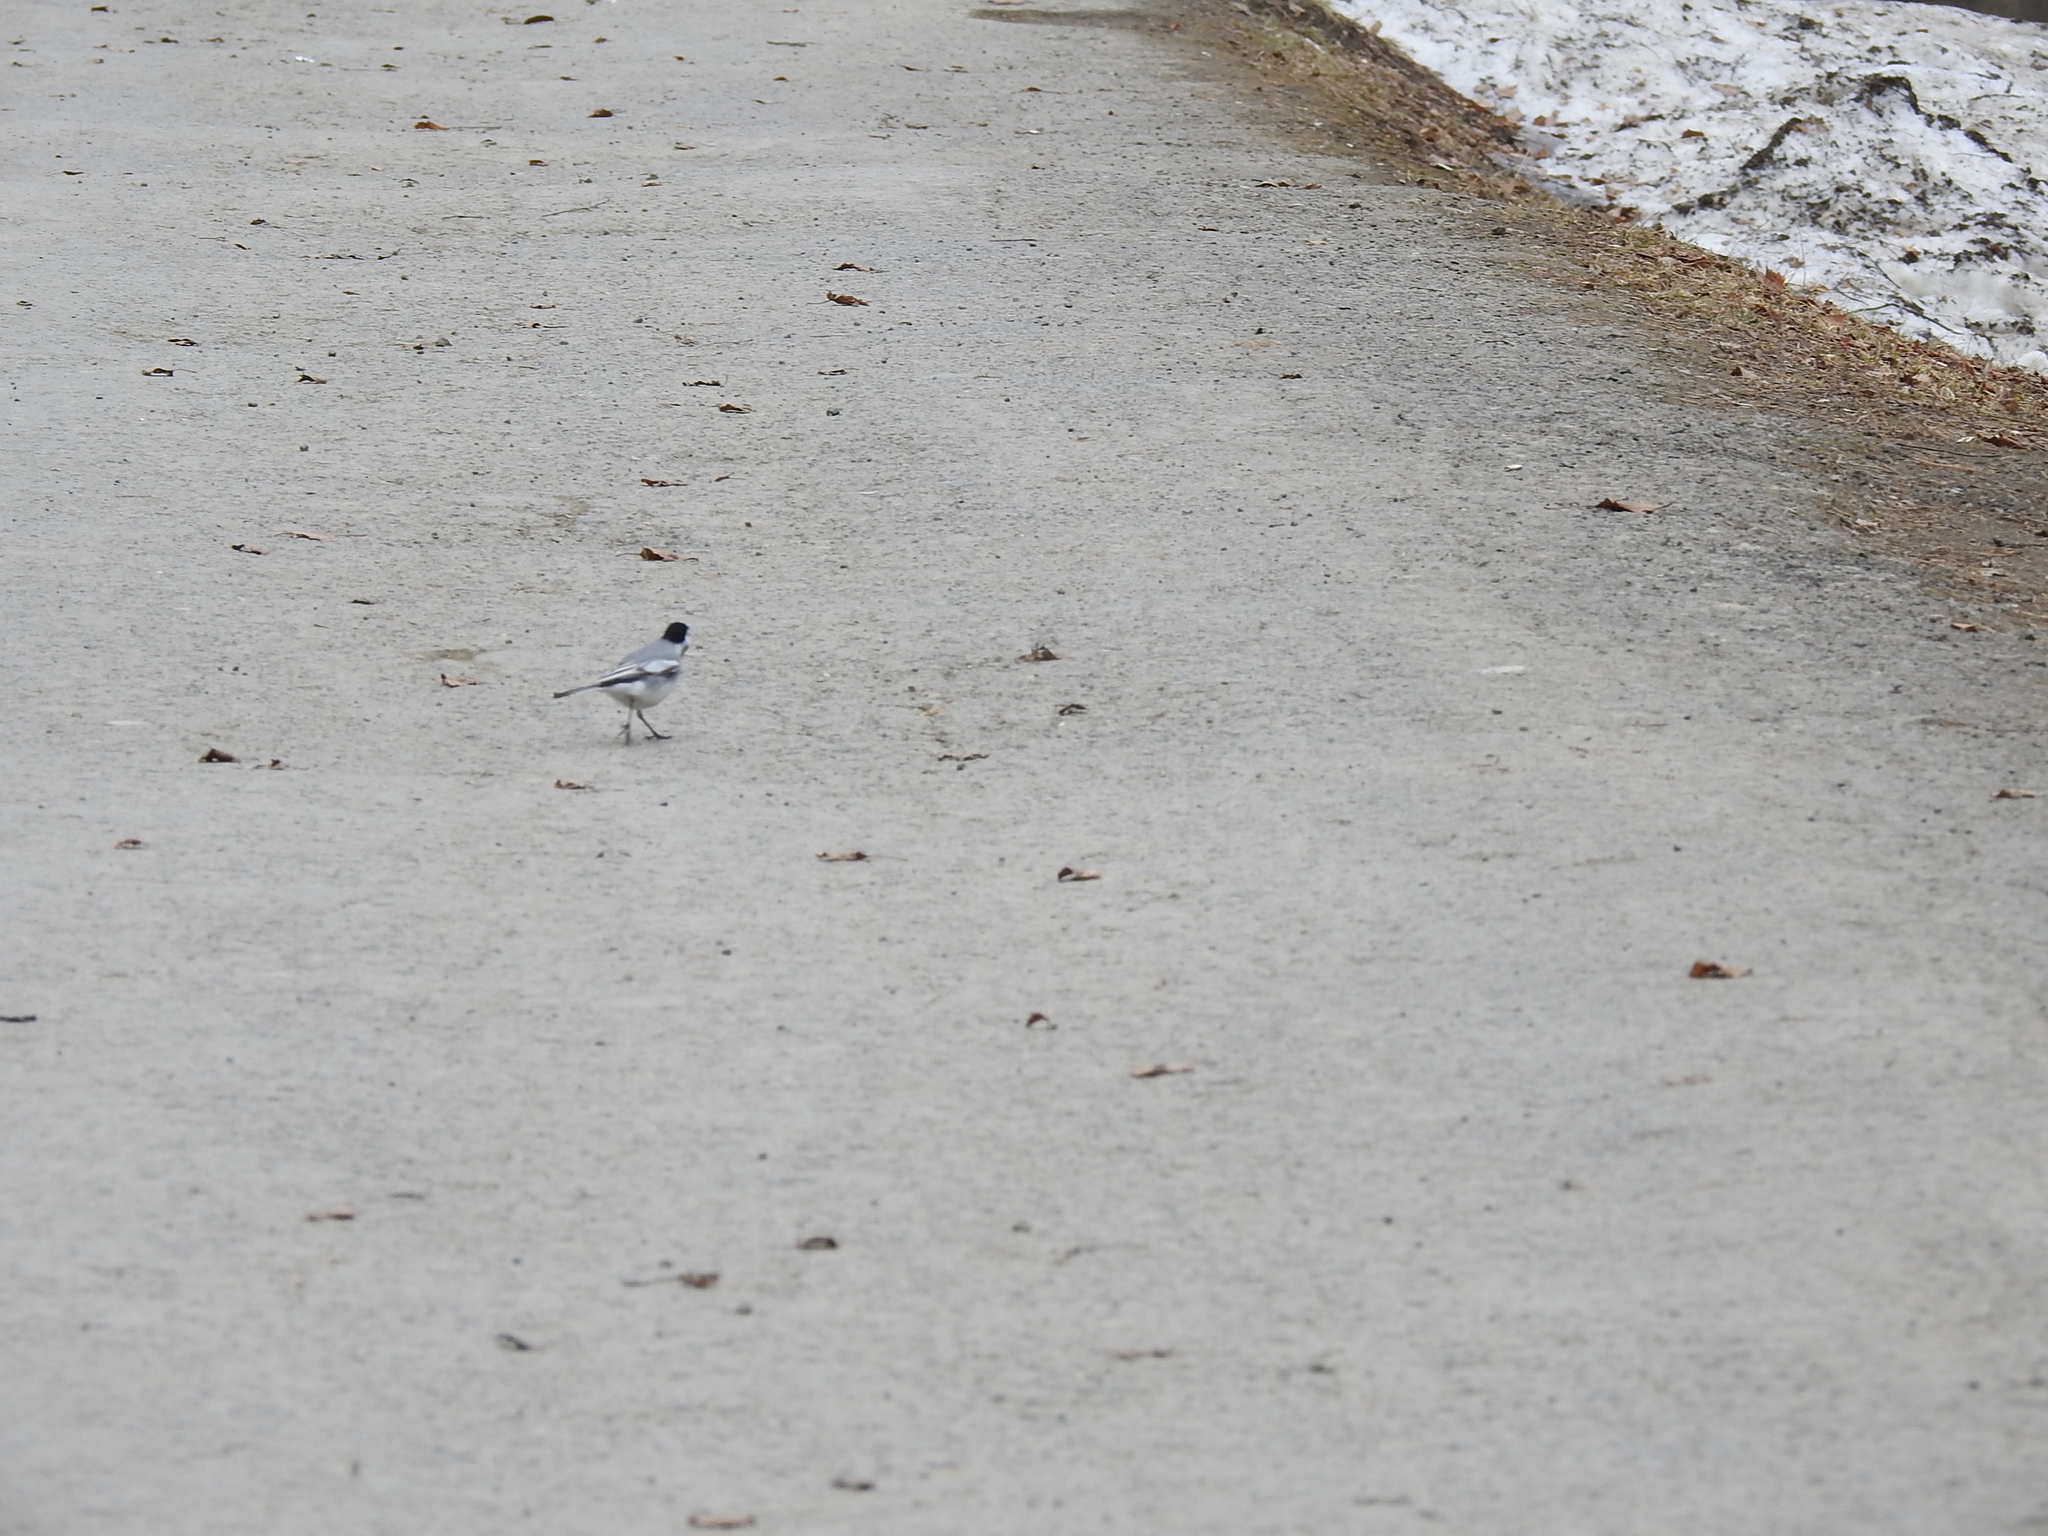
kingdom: Animalia
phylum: Chordata
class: Aves
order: Passeriformes
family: Motacillidae
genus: Motacilla
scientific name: Motacilla alba
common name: White wagtail
